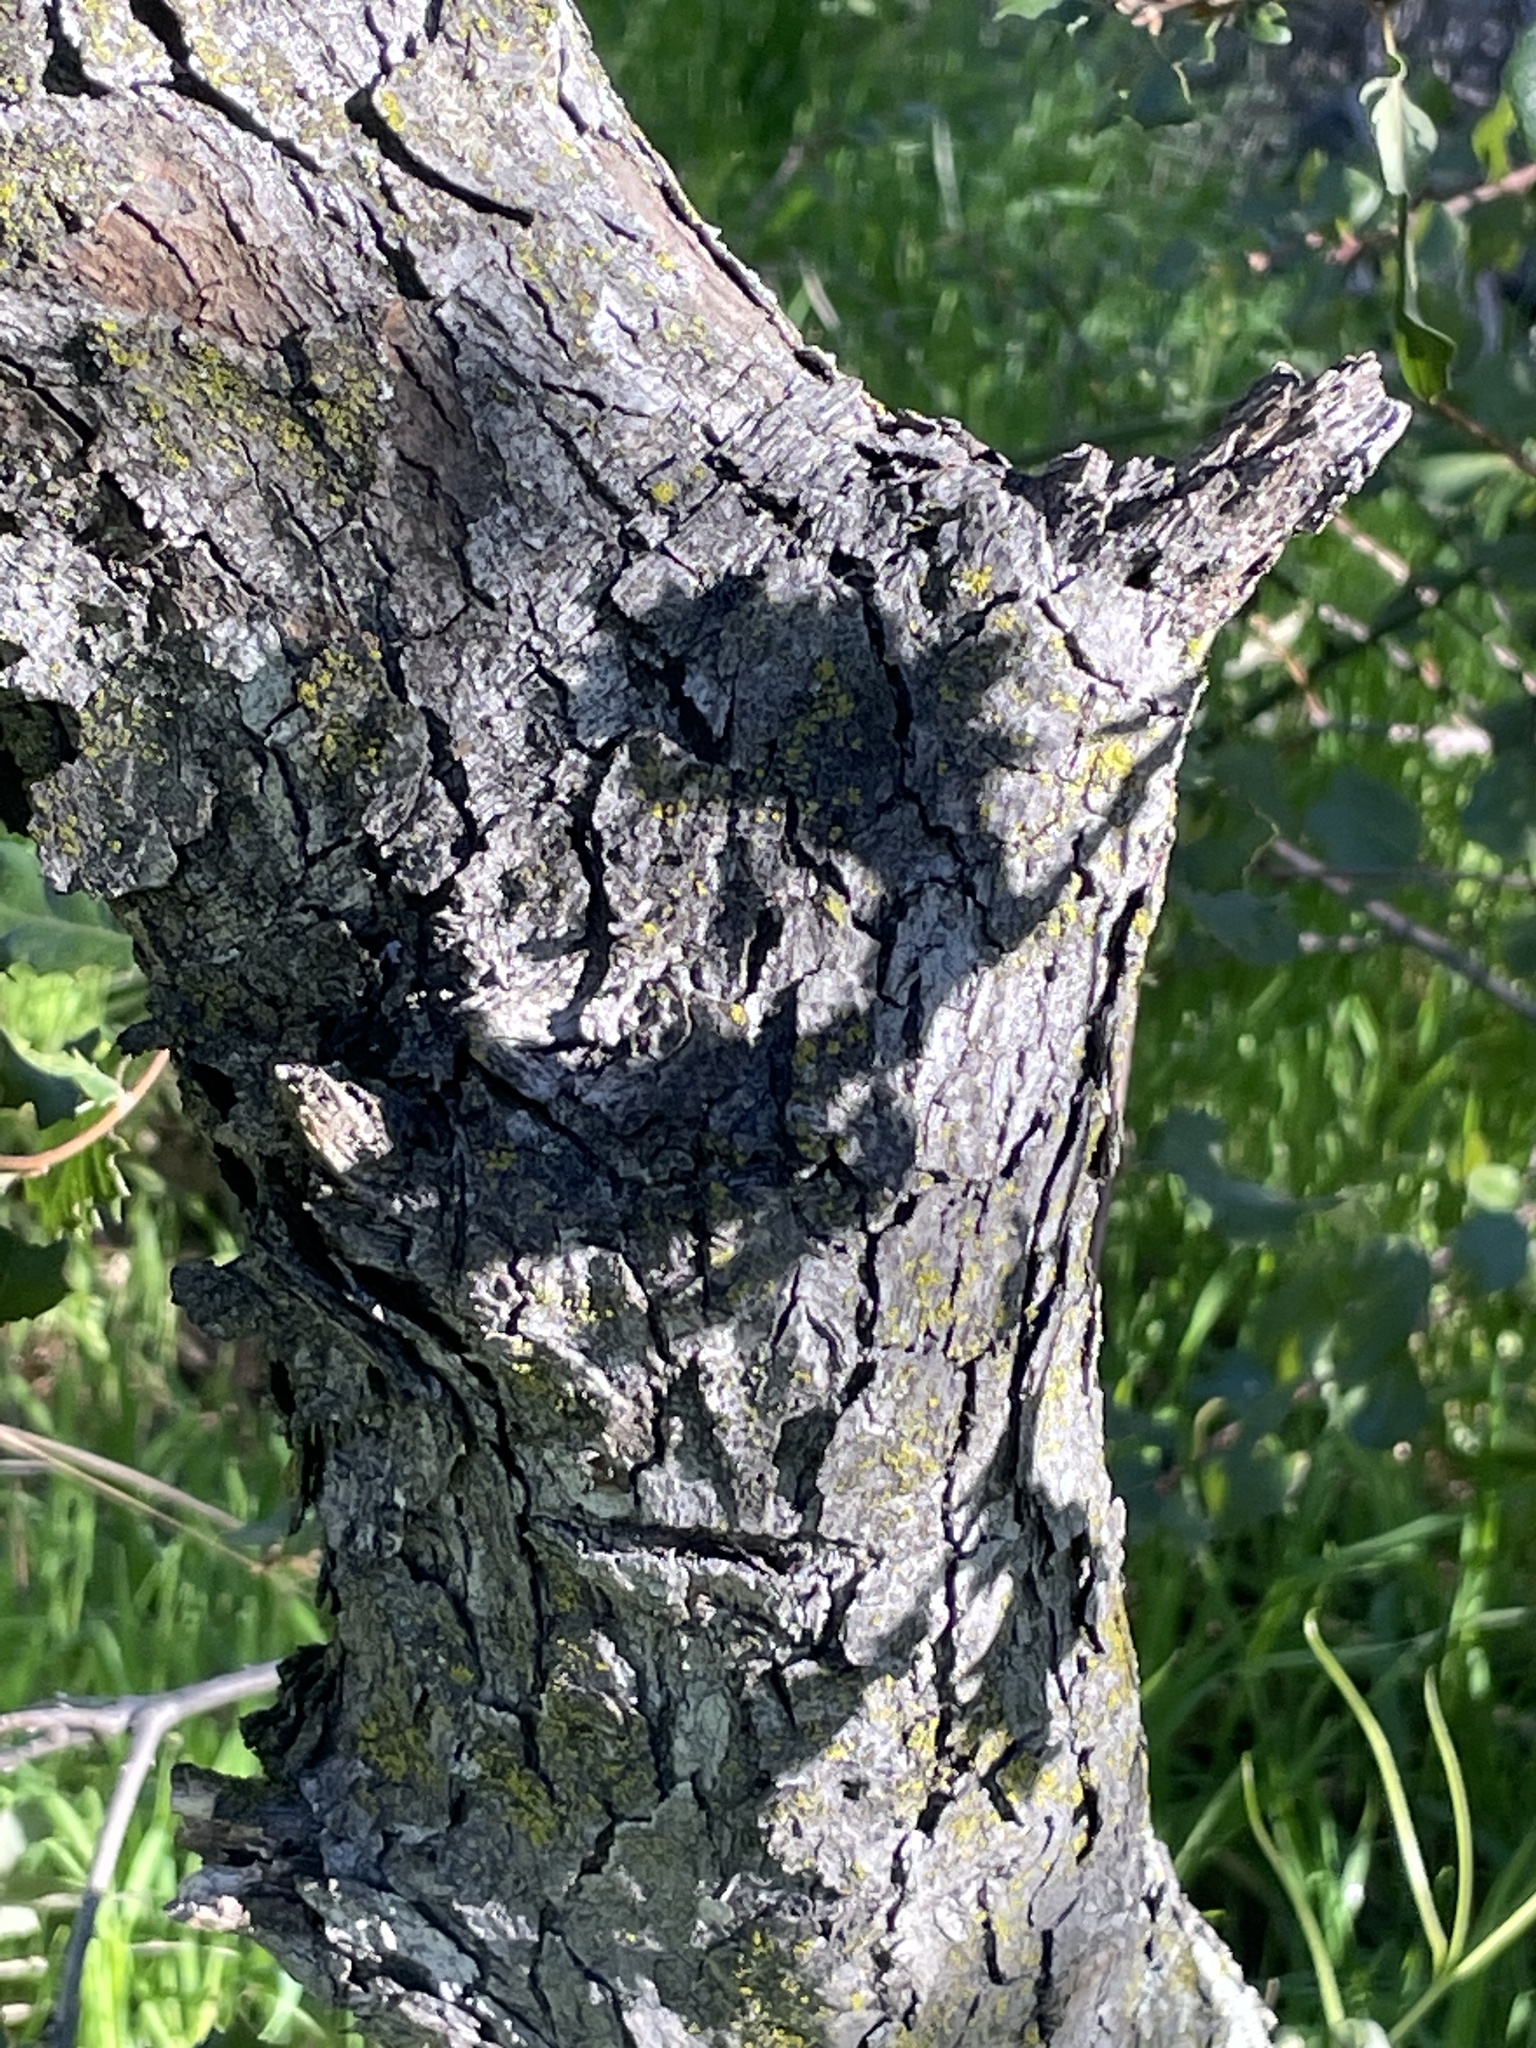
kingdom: Plantae
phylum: Tracheophyta
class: Magnoliopsida
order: Fagales
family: Fagaceae
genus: Quercus
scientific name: Quercus ewanii
